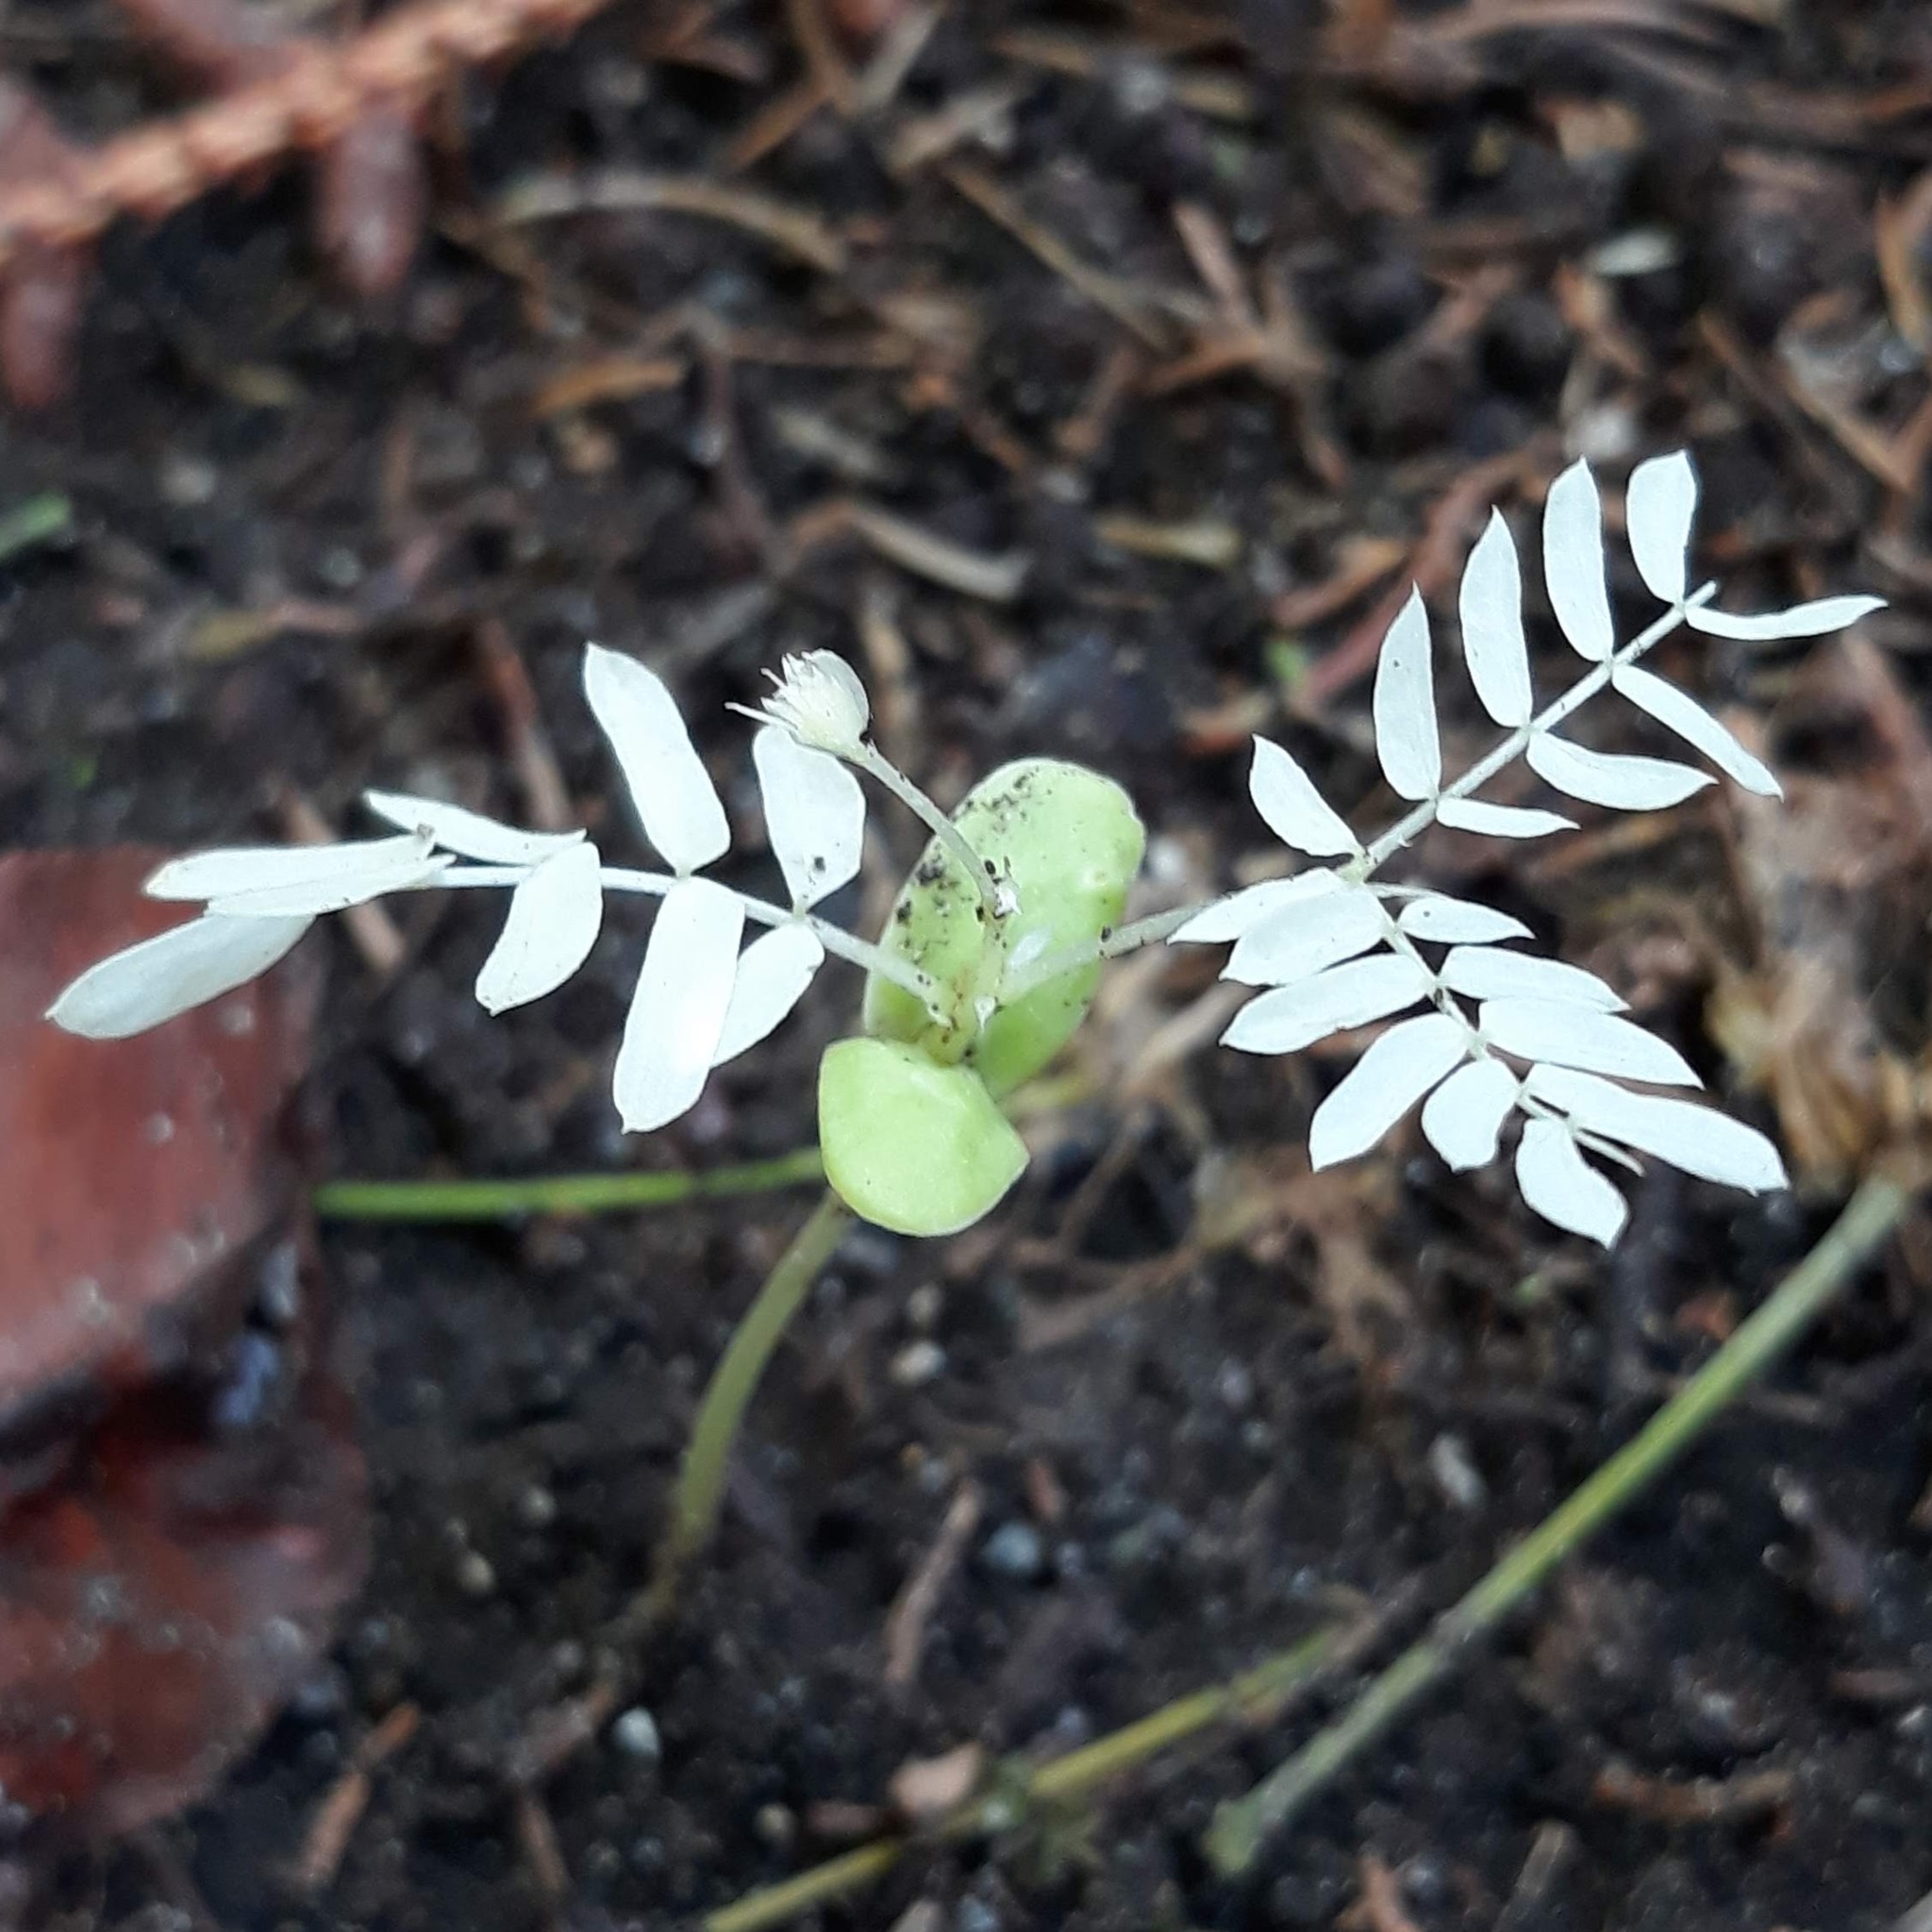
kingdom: Plantae
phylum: Tracheophyta
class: Magnoliopsida
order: Fabales
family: Fabaceae
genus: Albizia
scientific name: Albizia julibrissin
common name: Silktree
